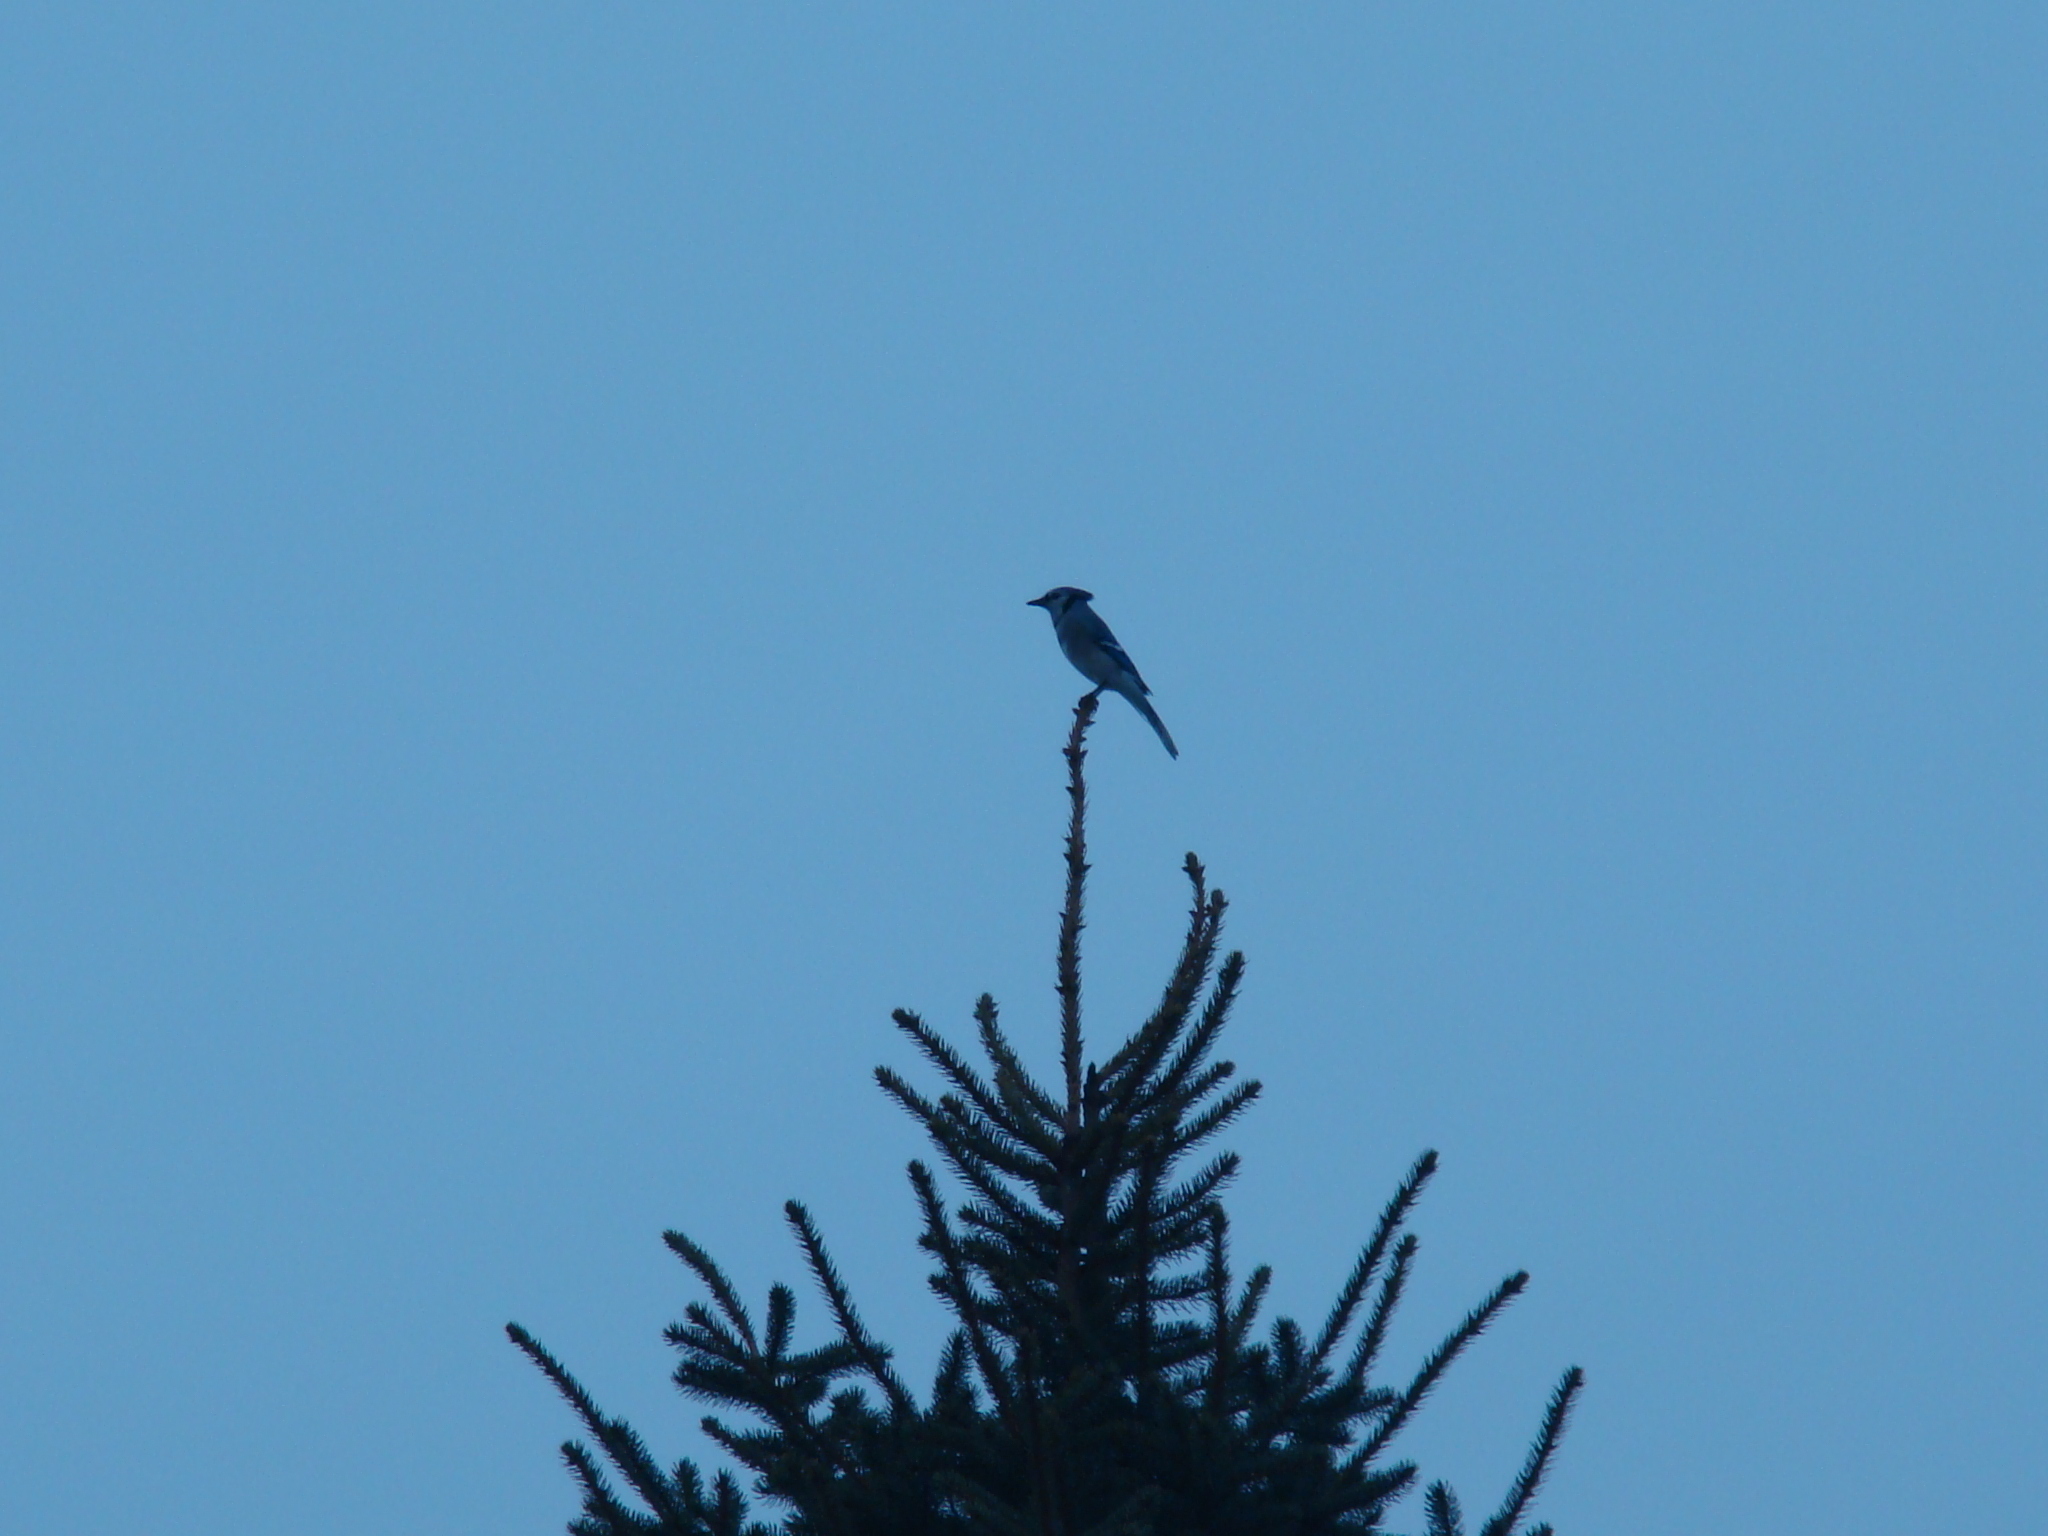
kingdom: Animalia
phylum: Chordata
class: Aves
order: Passeriformes
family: Corvidae
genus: Cyanocitta
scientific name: Cyanocitta cristata
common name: Blue jay
